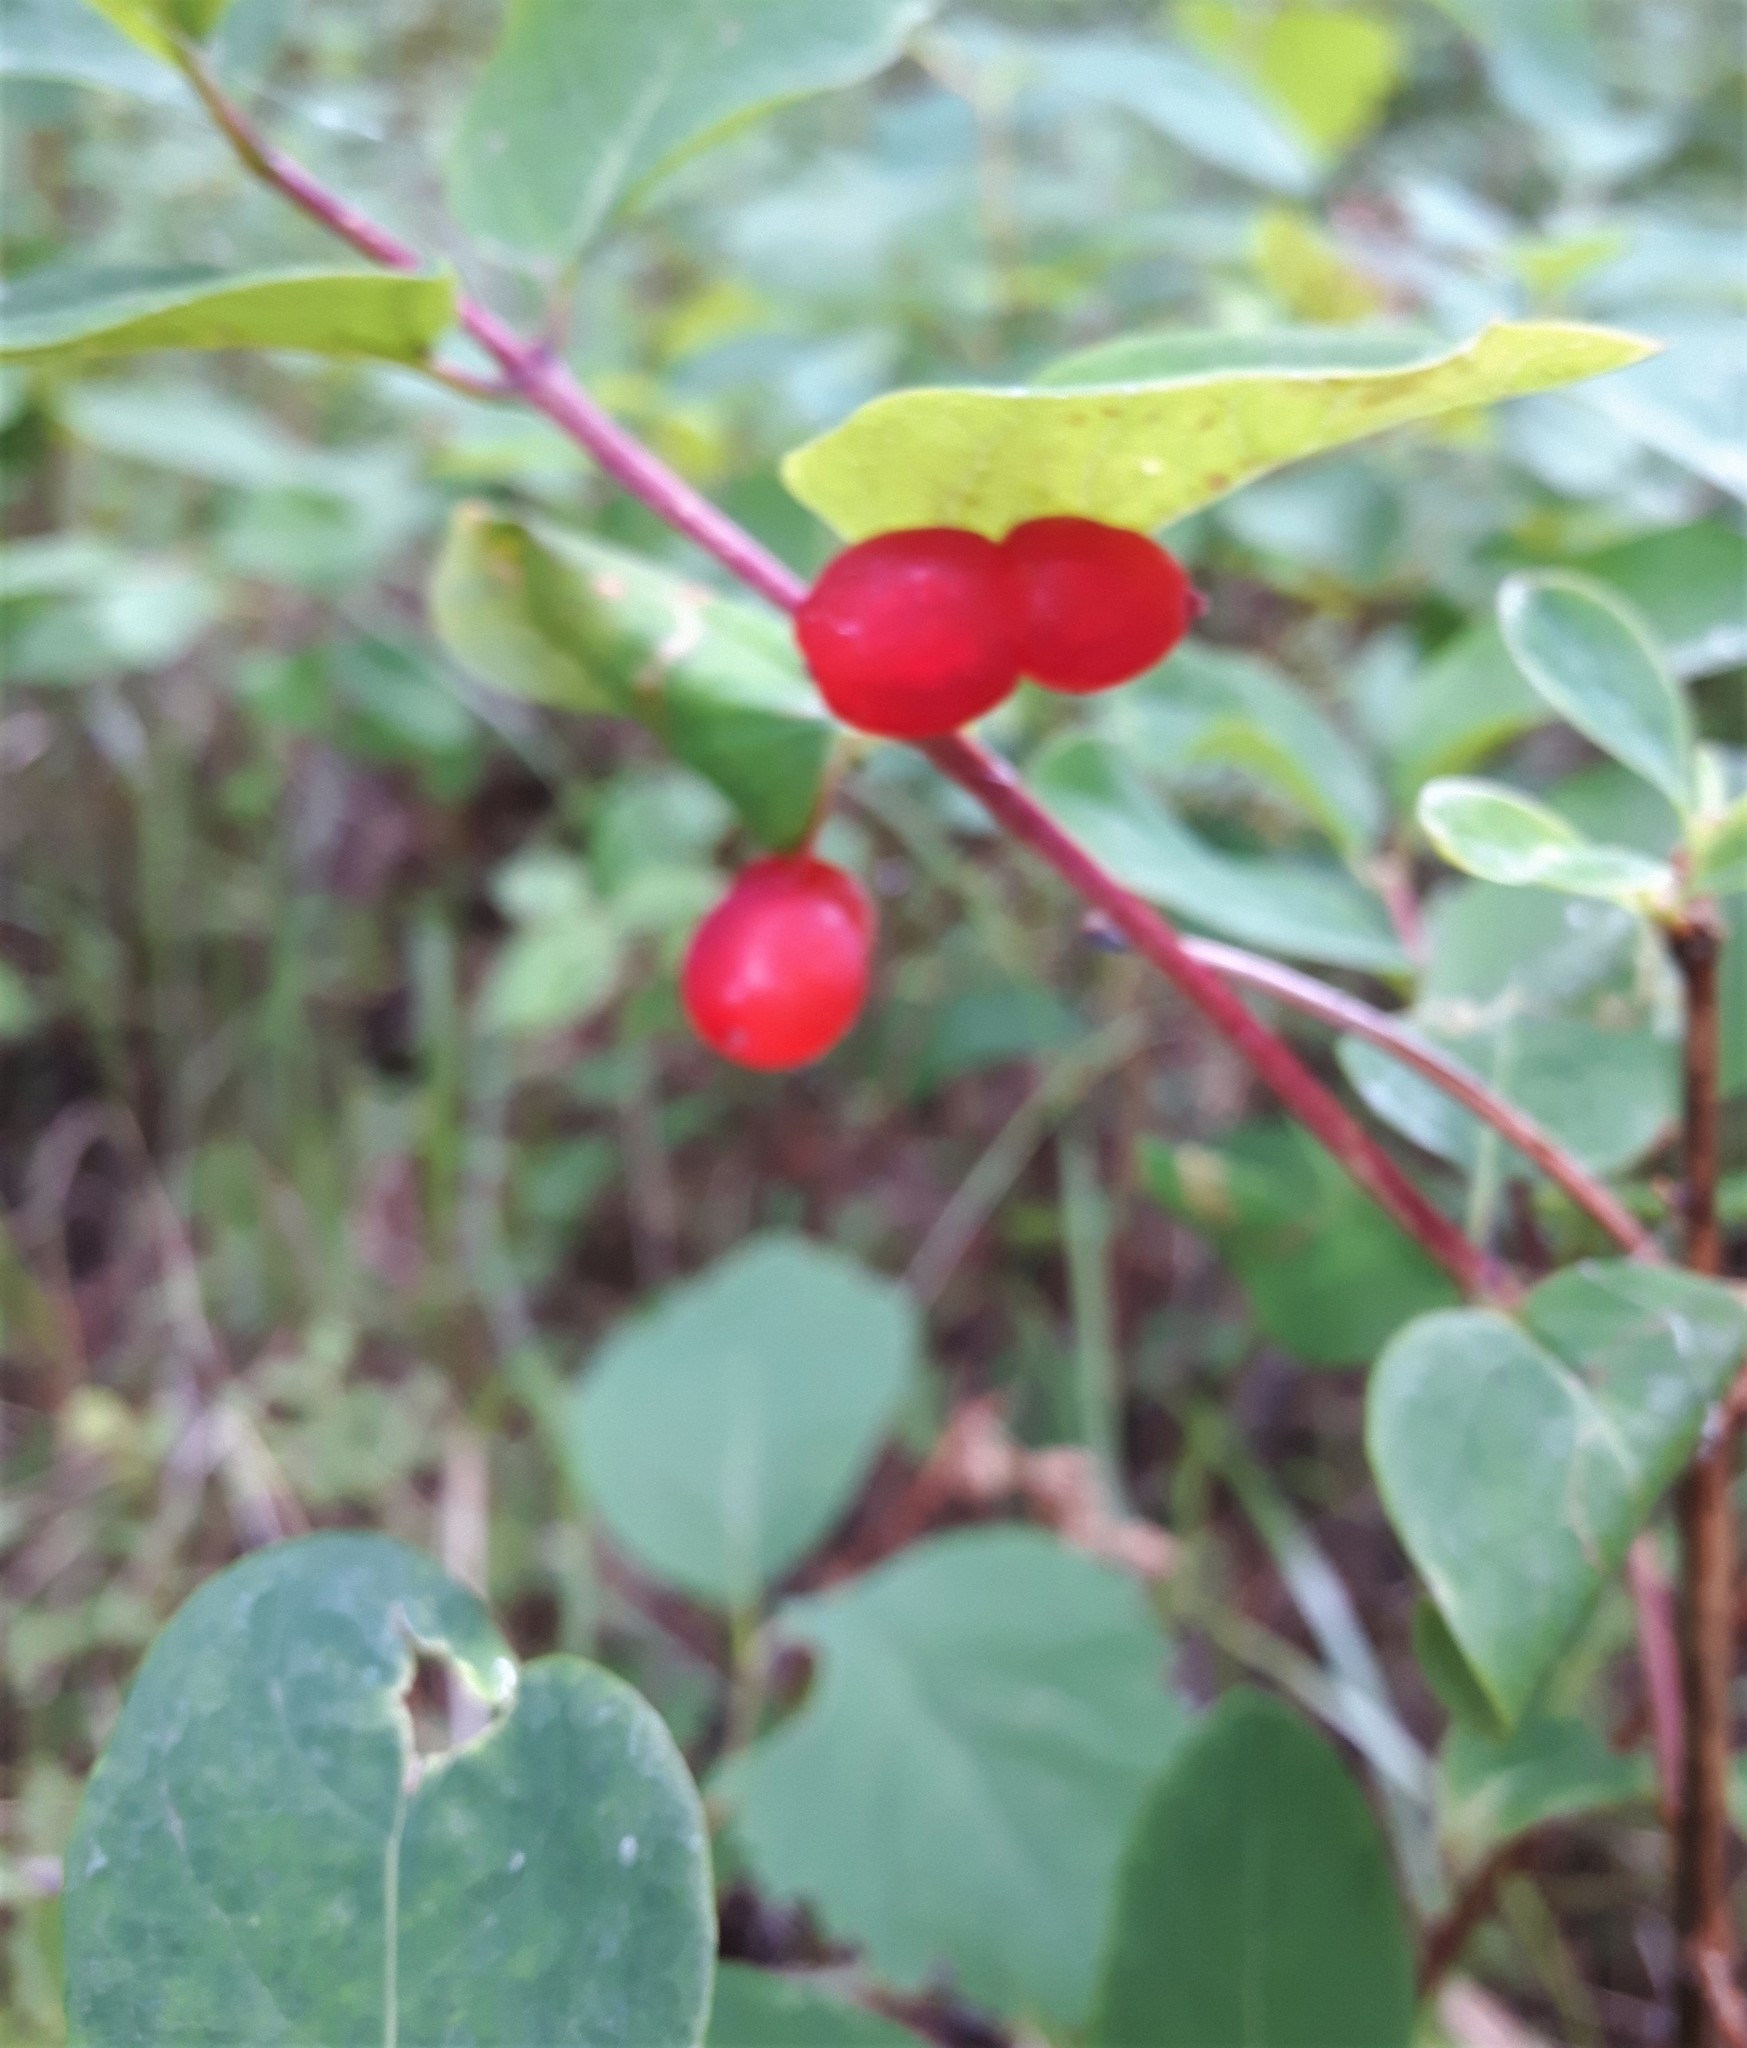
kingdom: Plantae
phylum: Tracheophyta
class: Magnoliopsida
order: Dipsacales
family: Caprifoliaceae
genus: Lonicera
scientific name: Lonicera utahensis
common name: Utah honeysuckle
